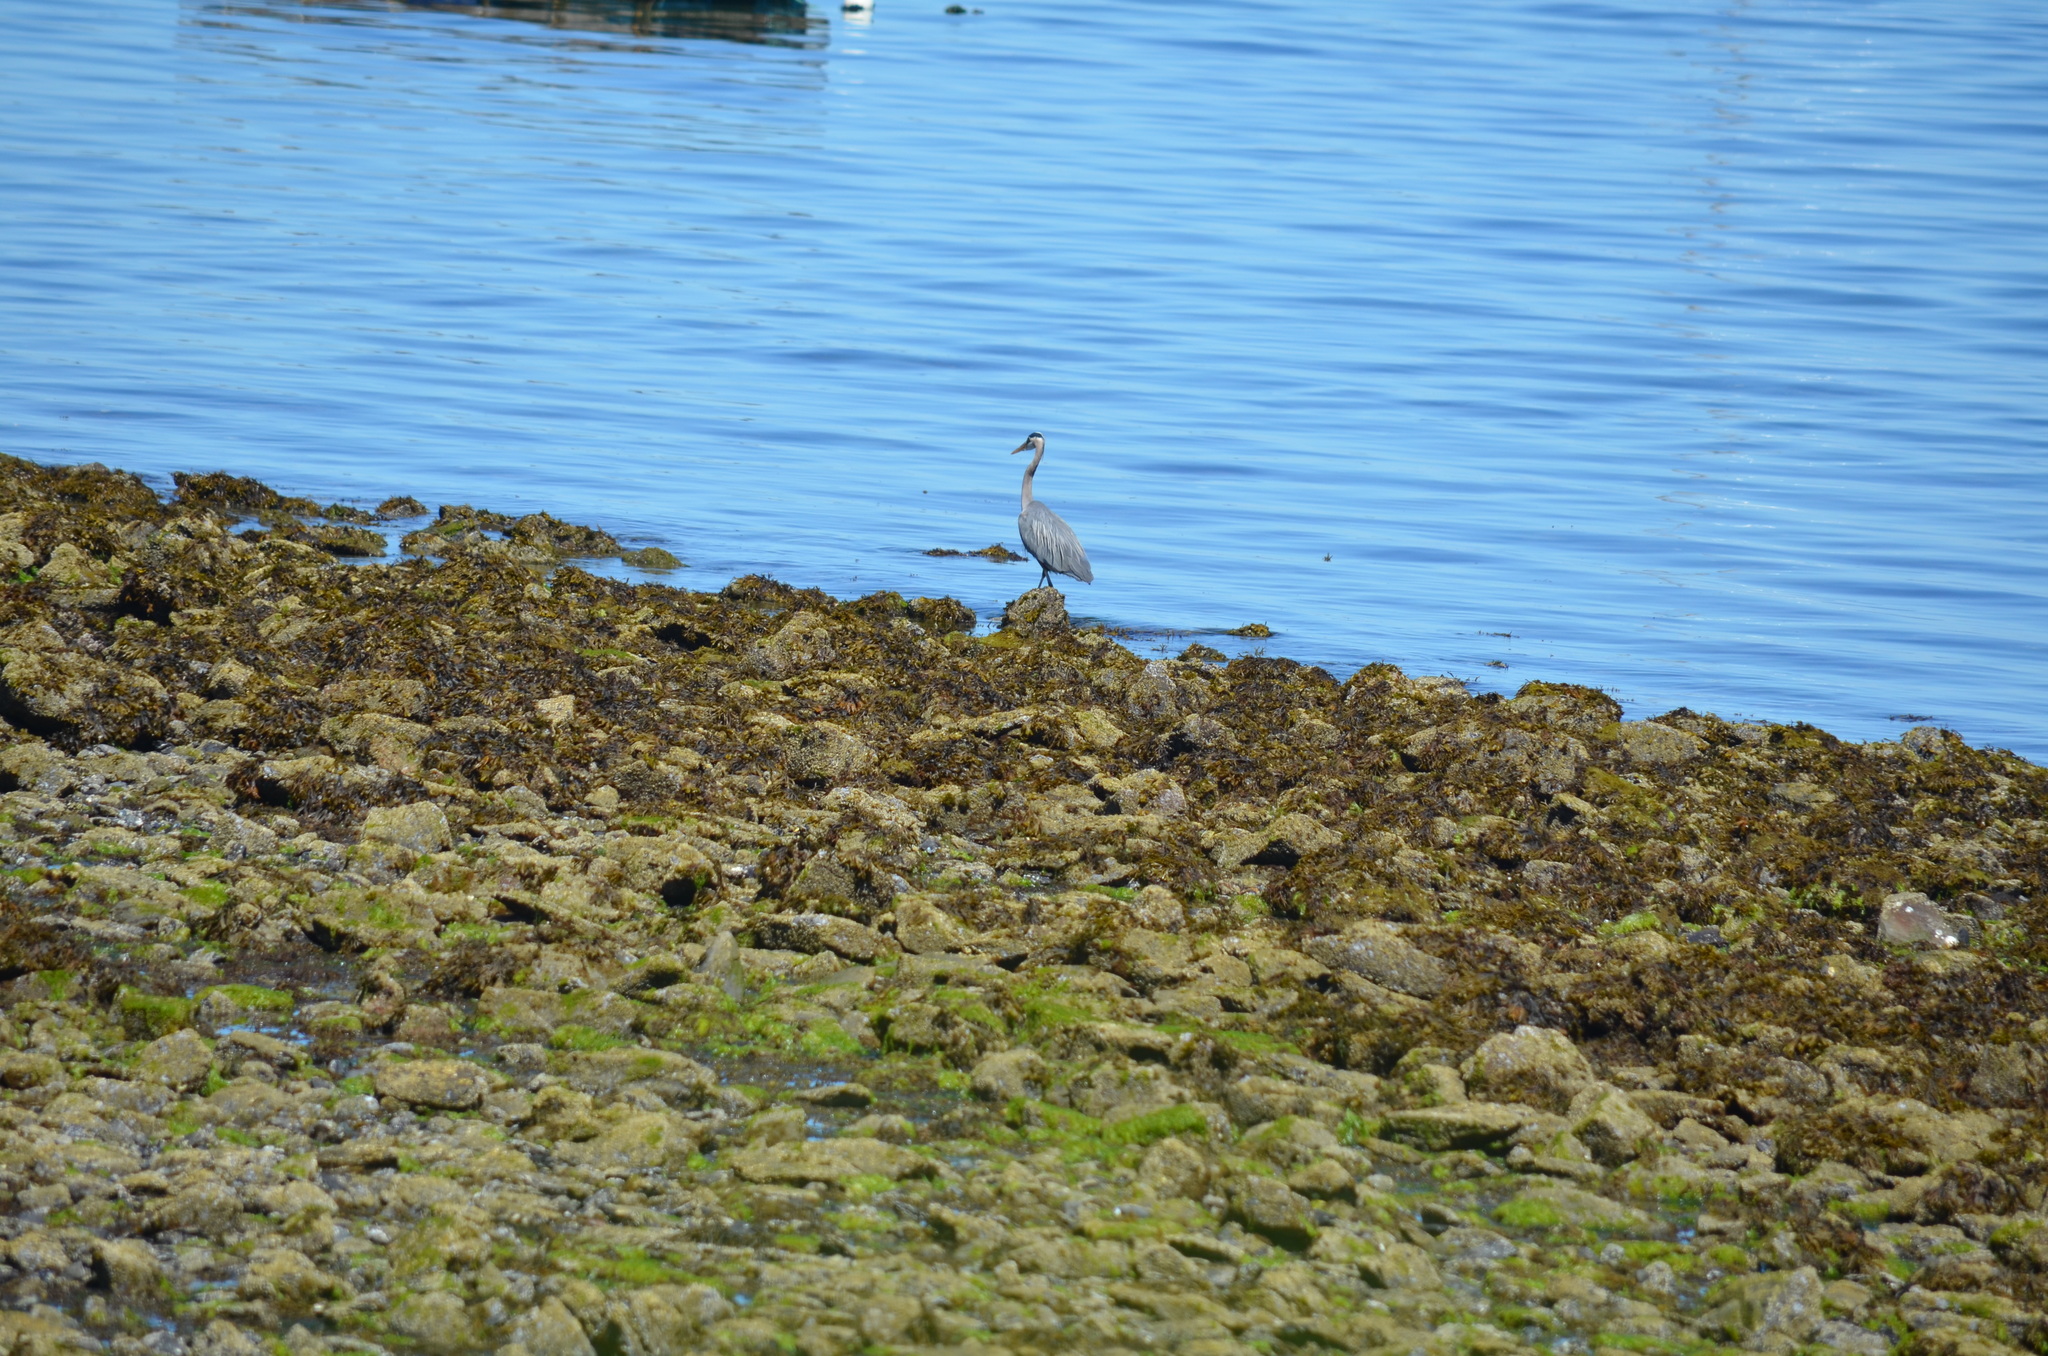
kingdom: Animalia
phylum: Chordata
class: Aves
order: Pelecaniformes
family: Ardeidae
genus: Ardea
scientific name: Ardea herodias
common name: Great blue heron
